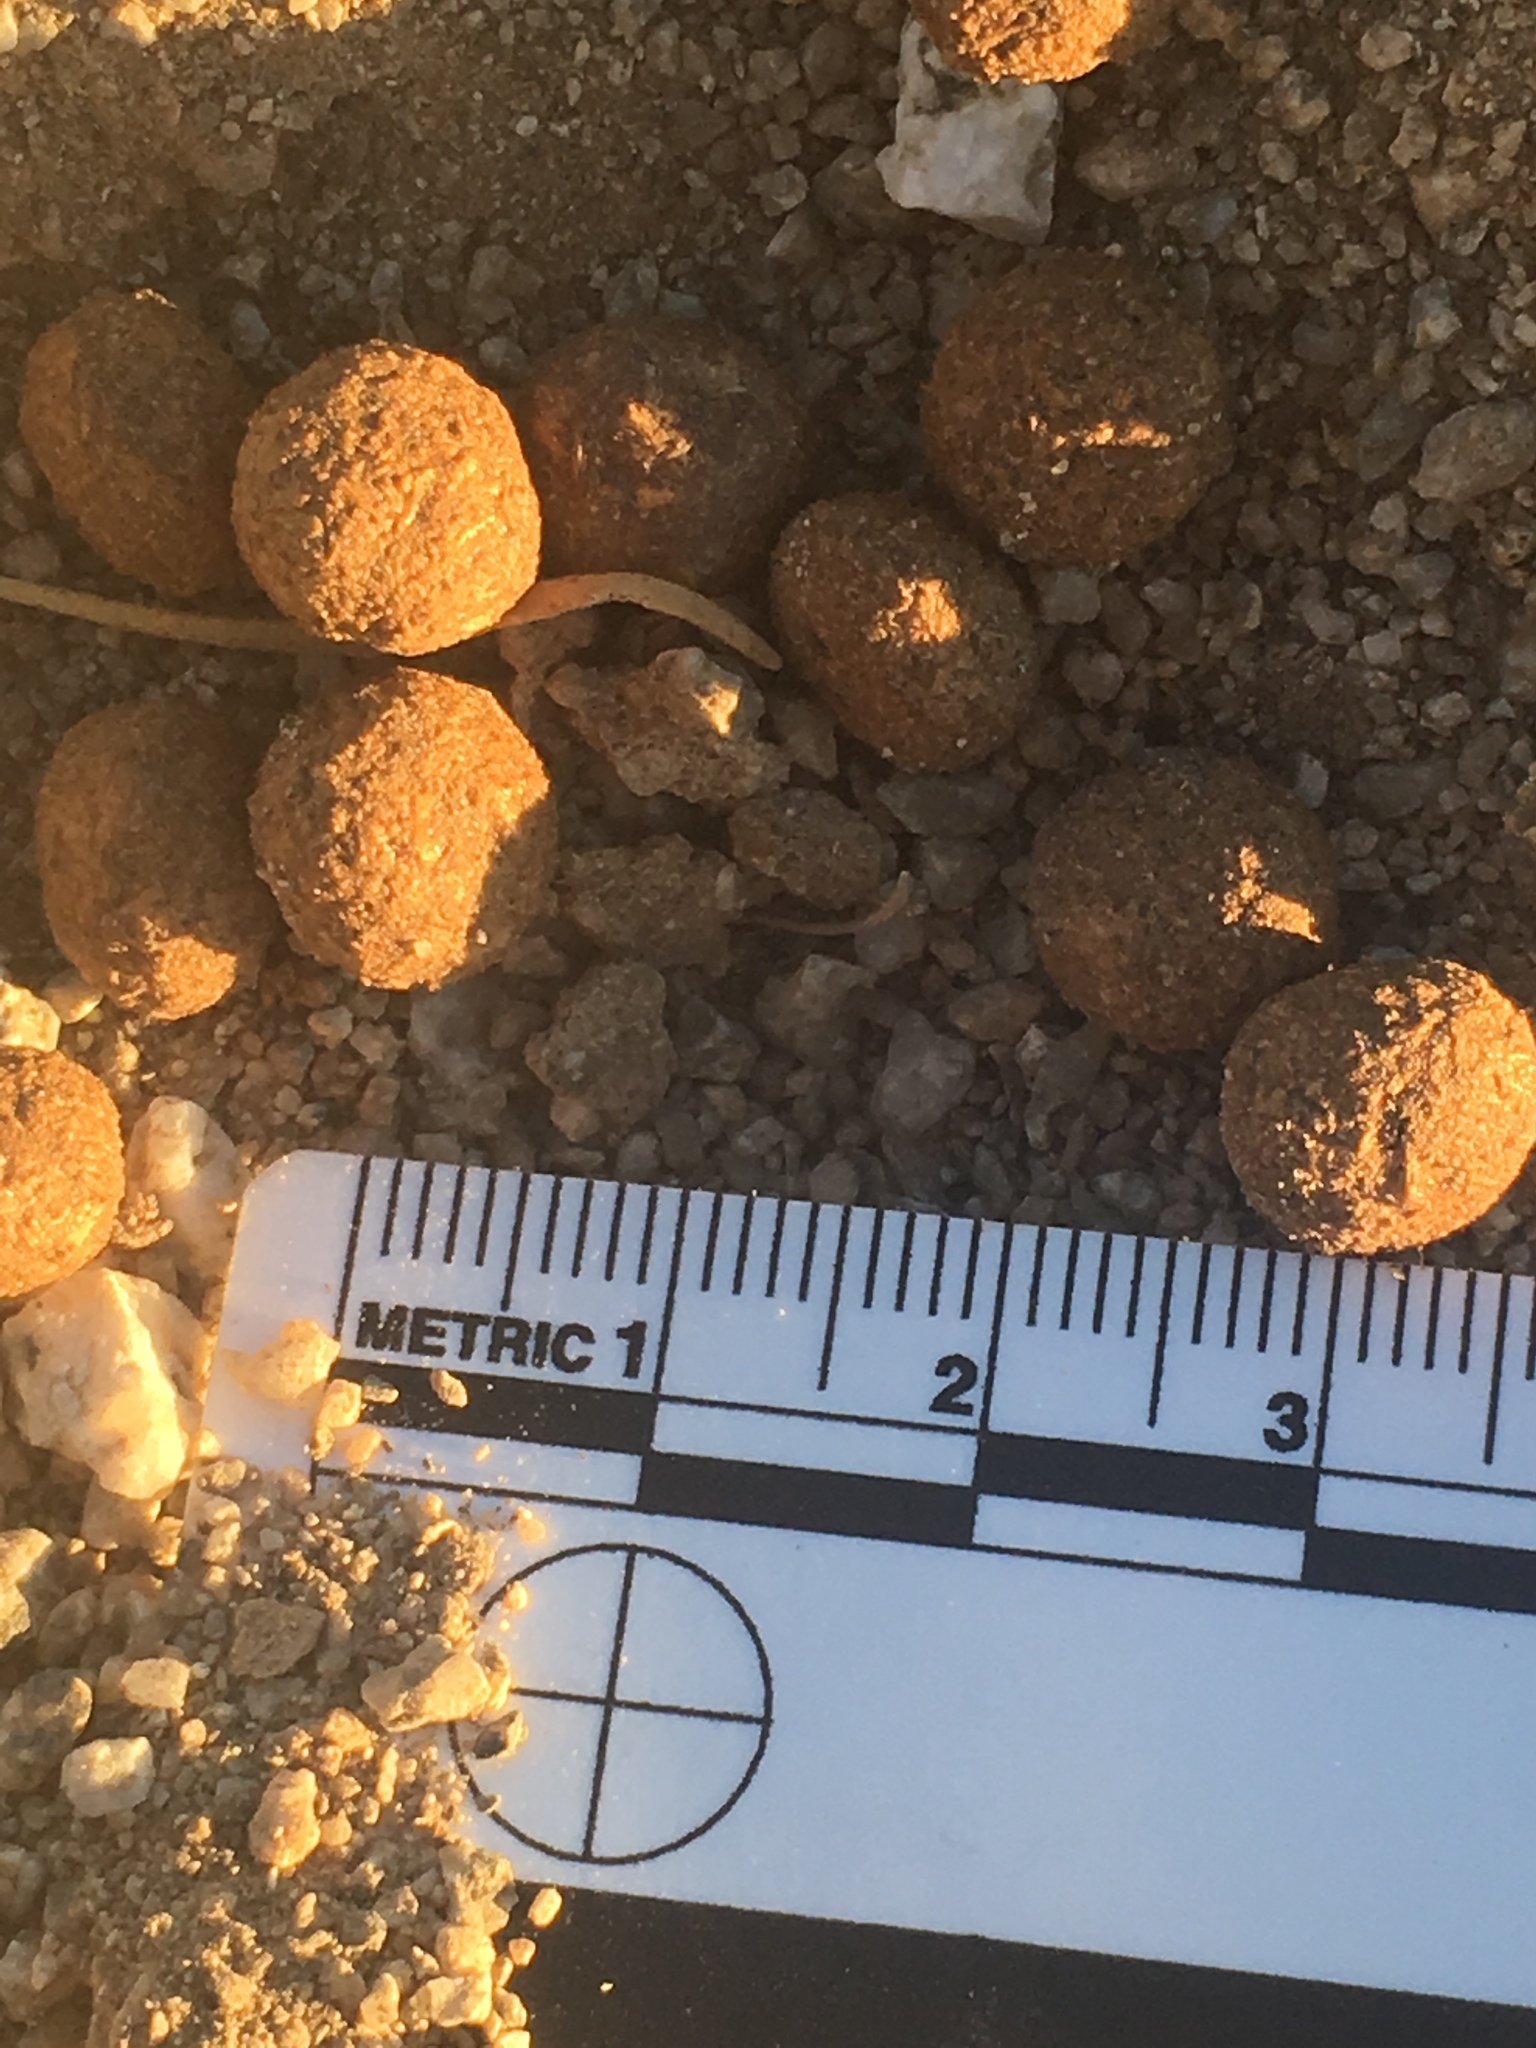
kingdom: Animalia
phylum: Chordata
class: Mammalia
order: Lagomorpha
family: Leporidae
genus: Lepus
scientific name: Lepus californicus
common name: Black-tailed jackrabbit
